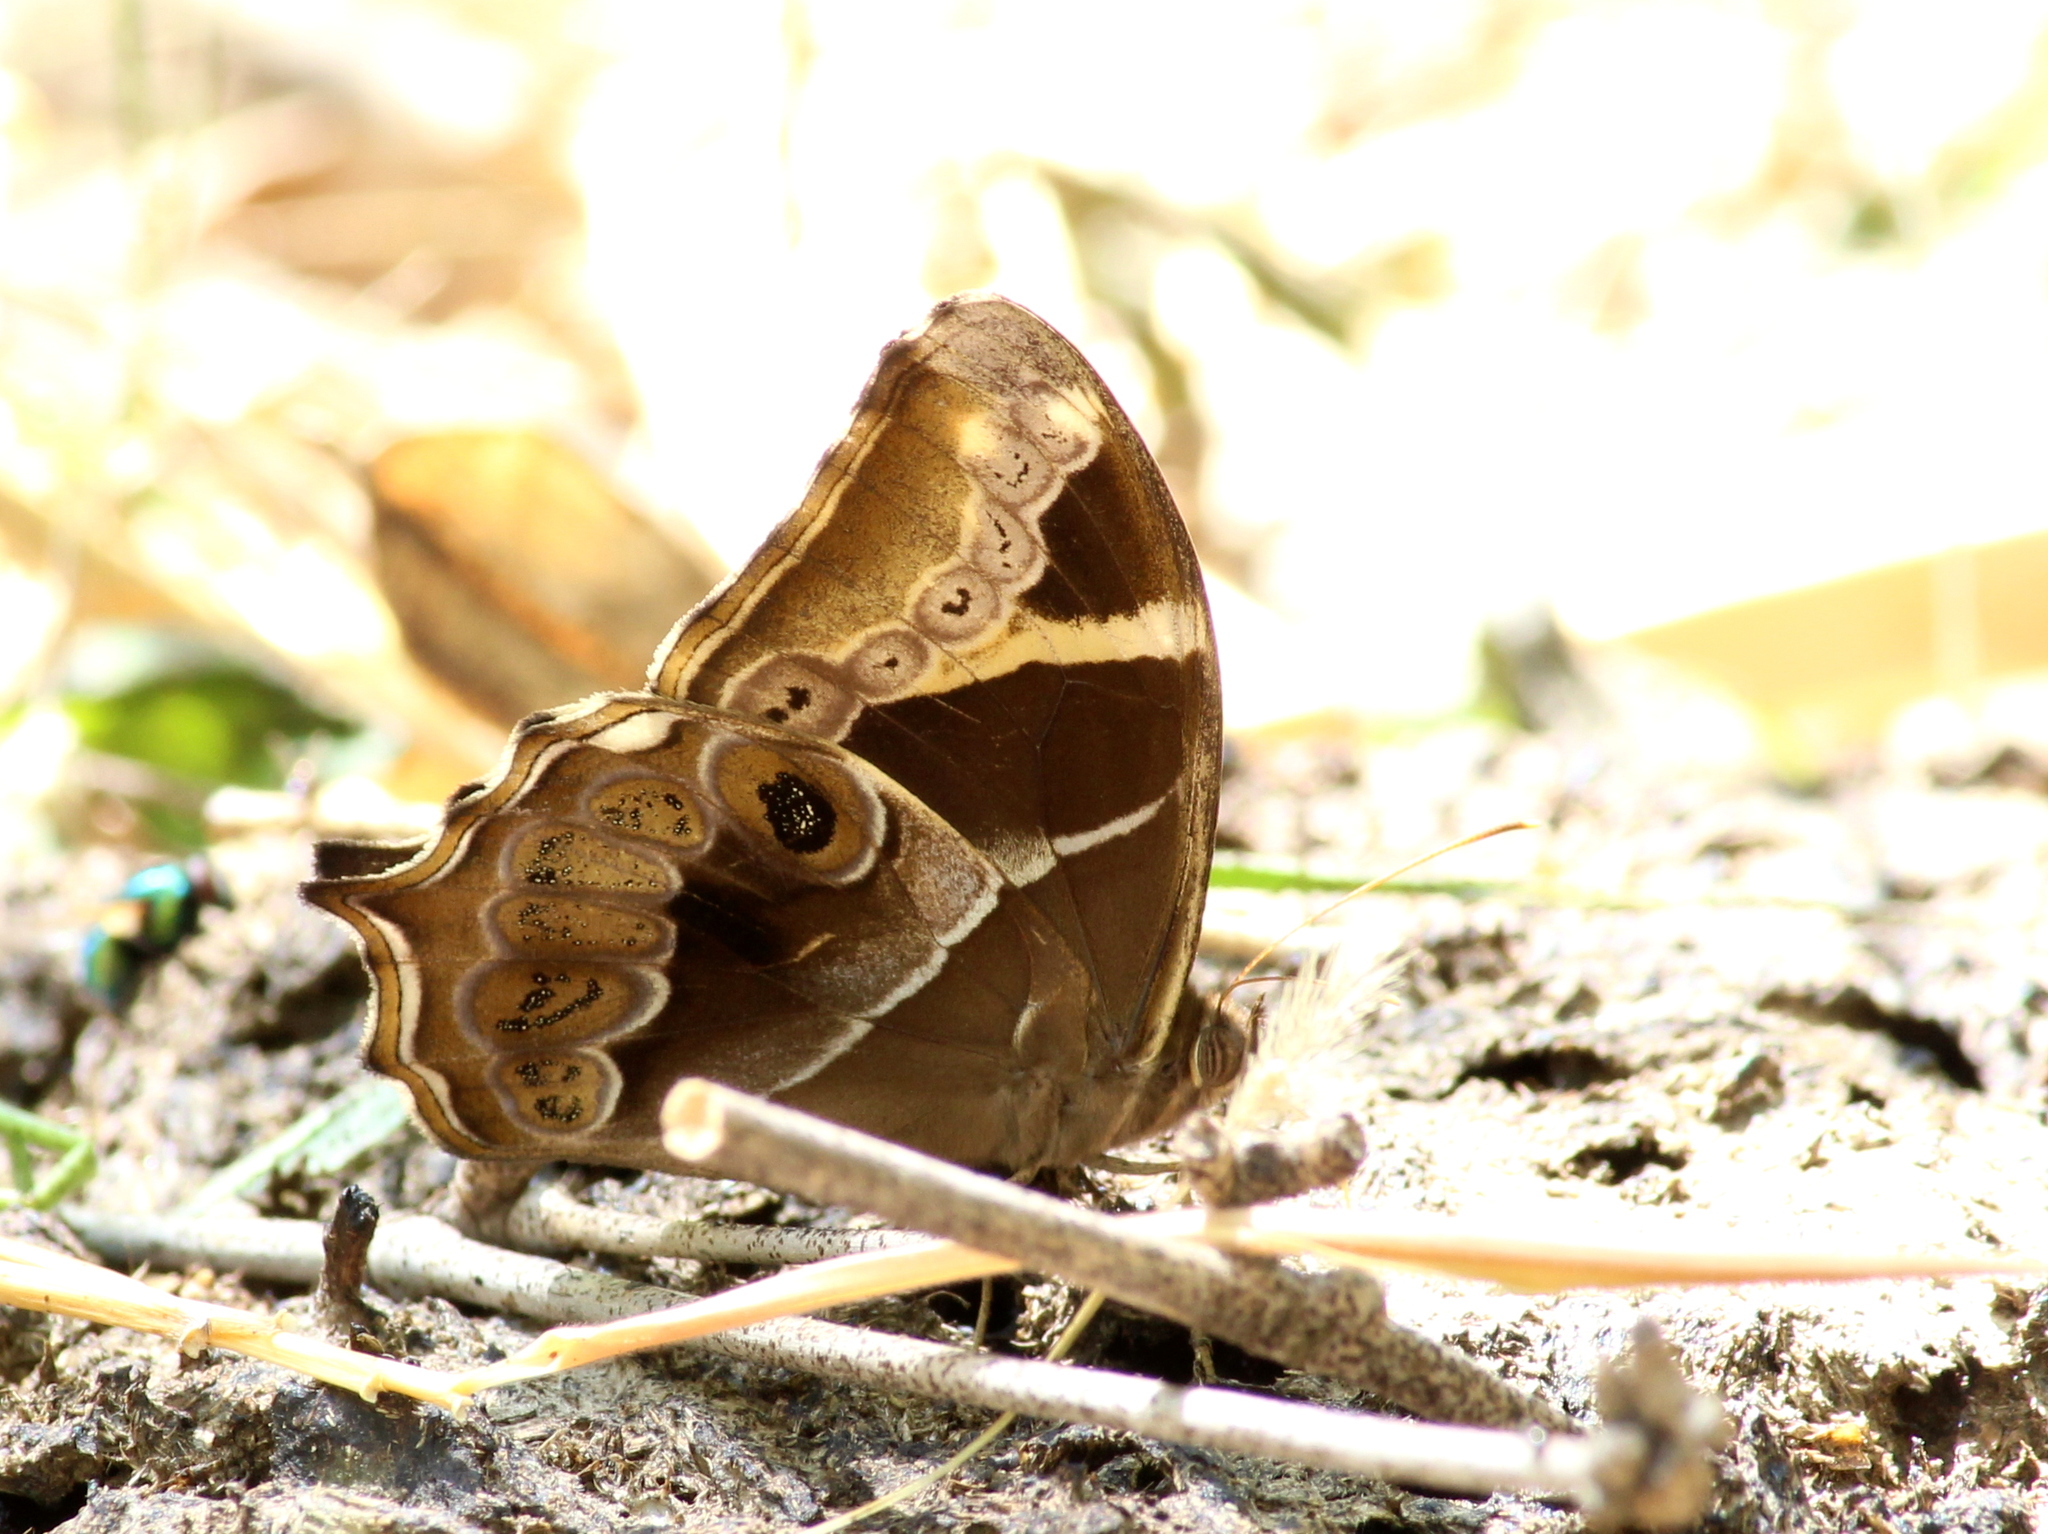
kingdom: Animalia
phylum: Arthropoda
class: Insecta
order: Lepidoptera
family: Nymphalidae
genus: Lethe
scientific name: Lethe europa
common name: Bamboo treebrown
